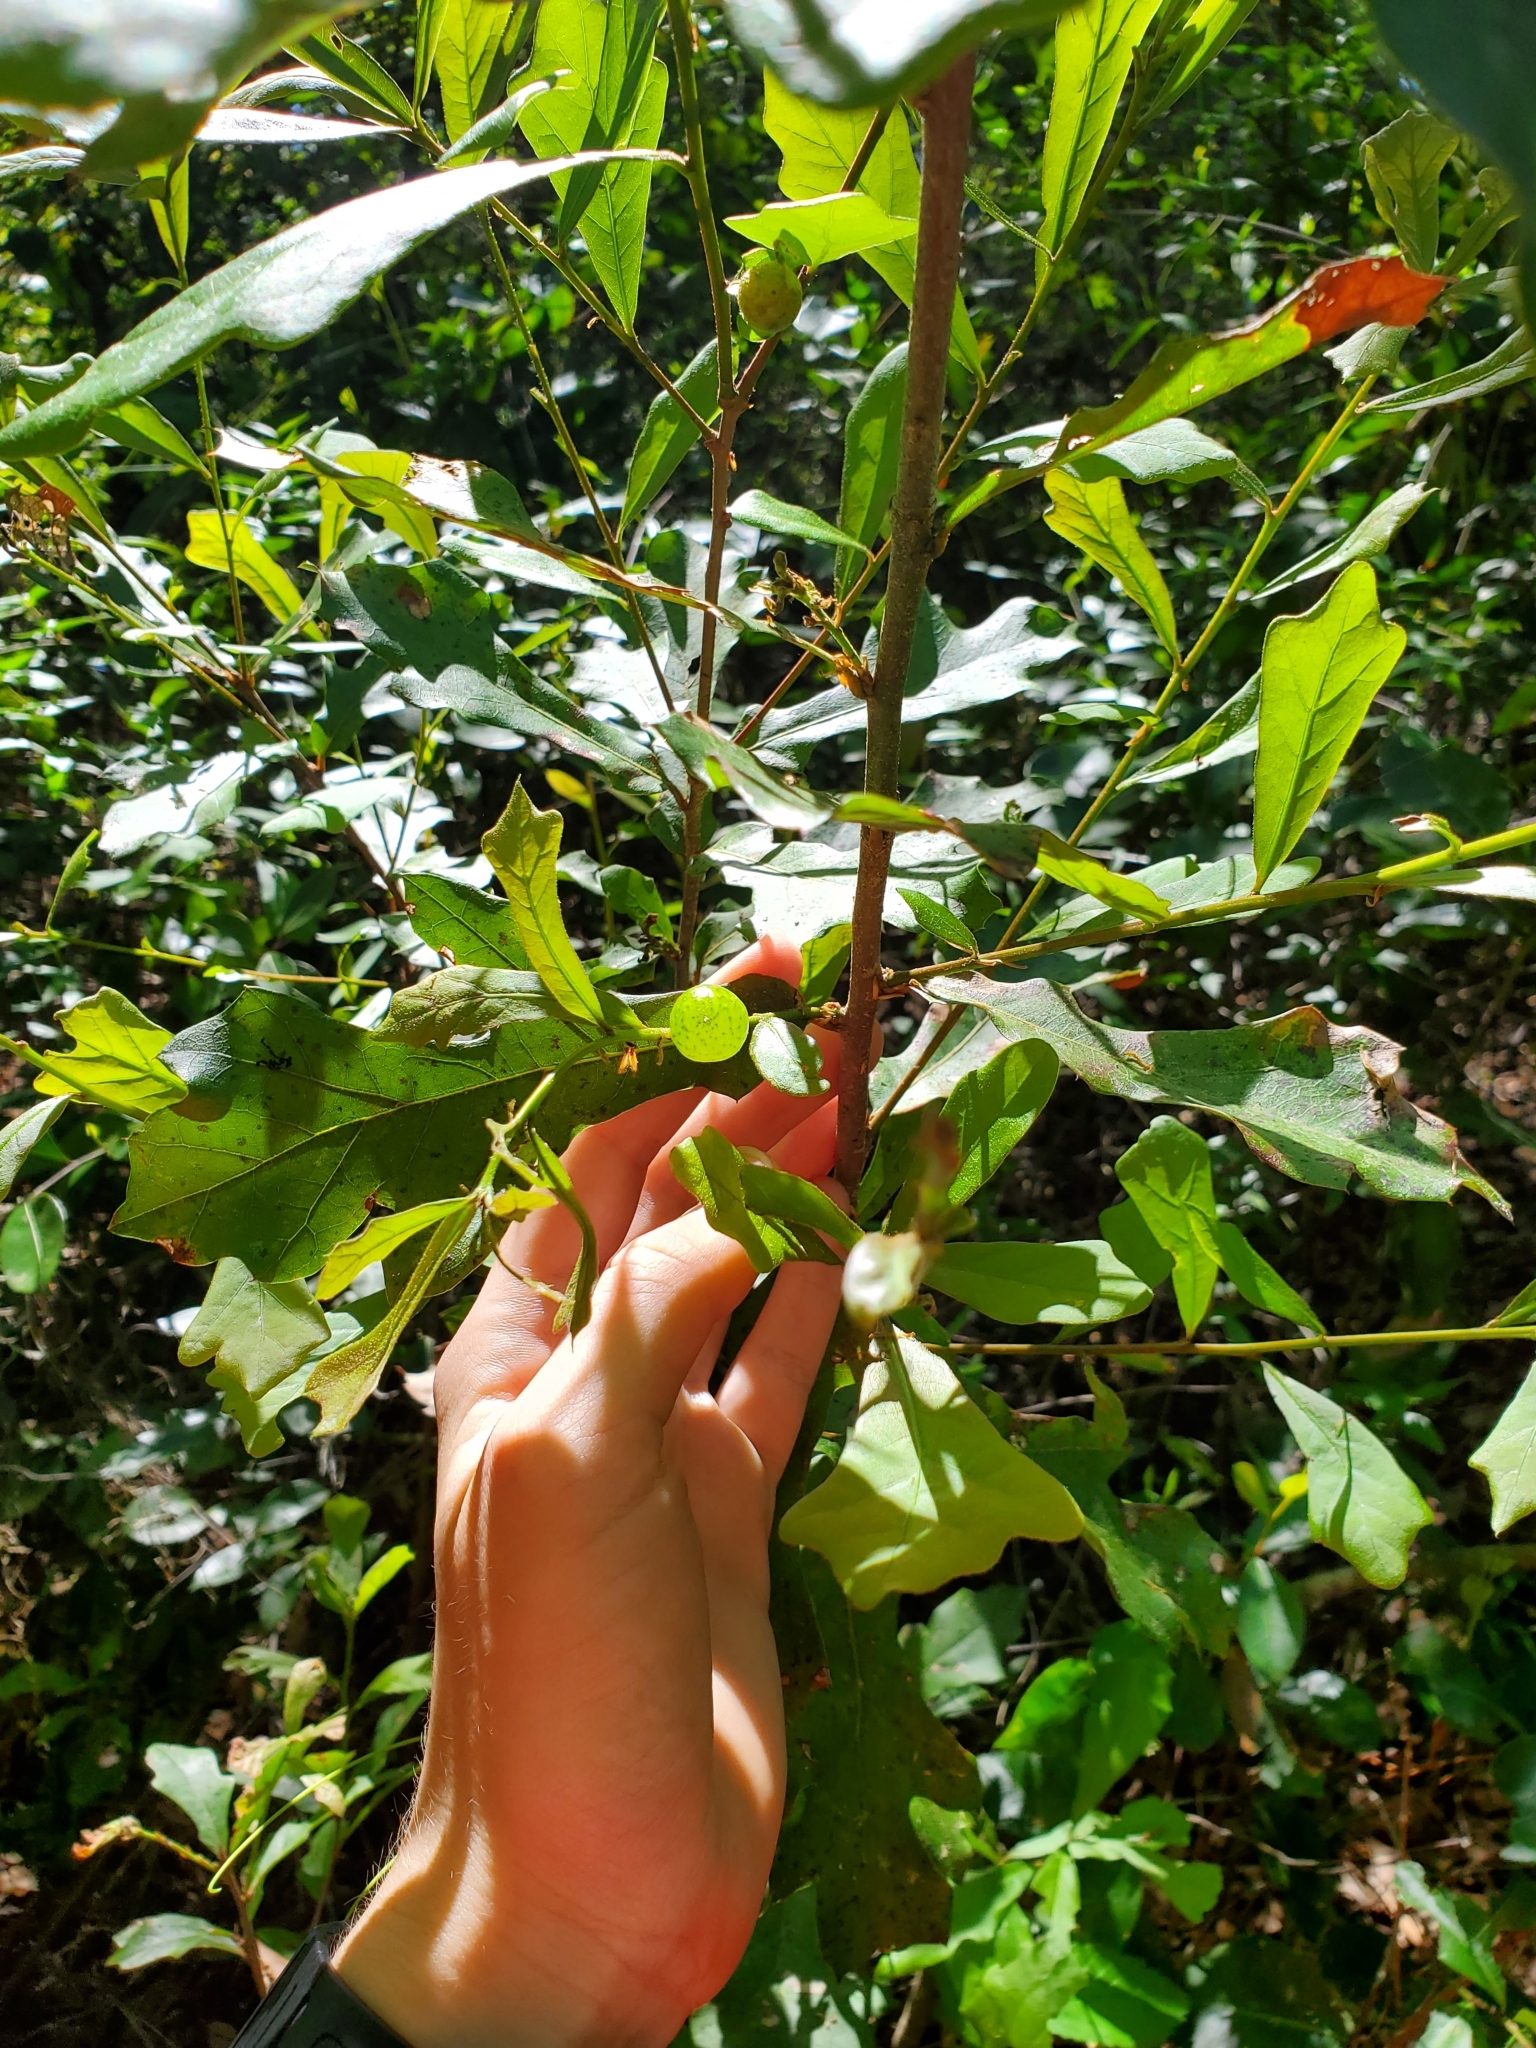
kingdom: Animalia
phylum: Arthropoda
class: Insecta
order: Hymenoptera
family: Cynipidae
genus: Amphibolips
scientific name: Amphibolips
